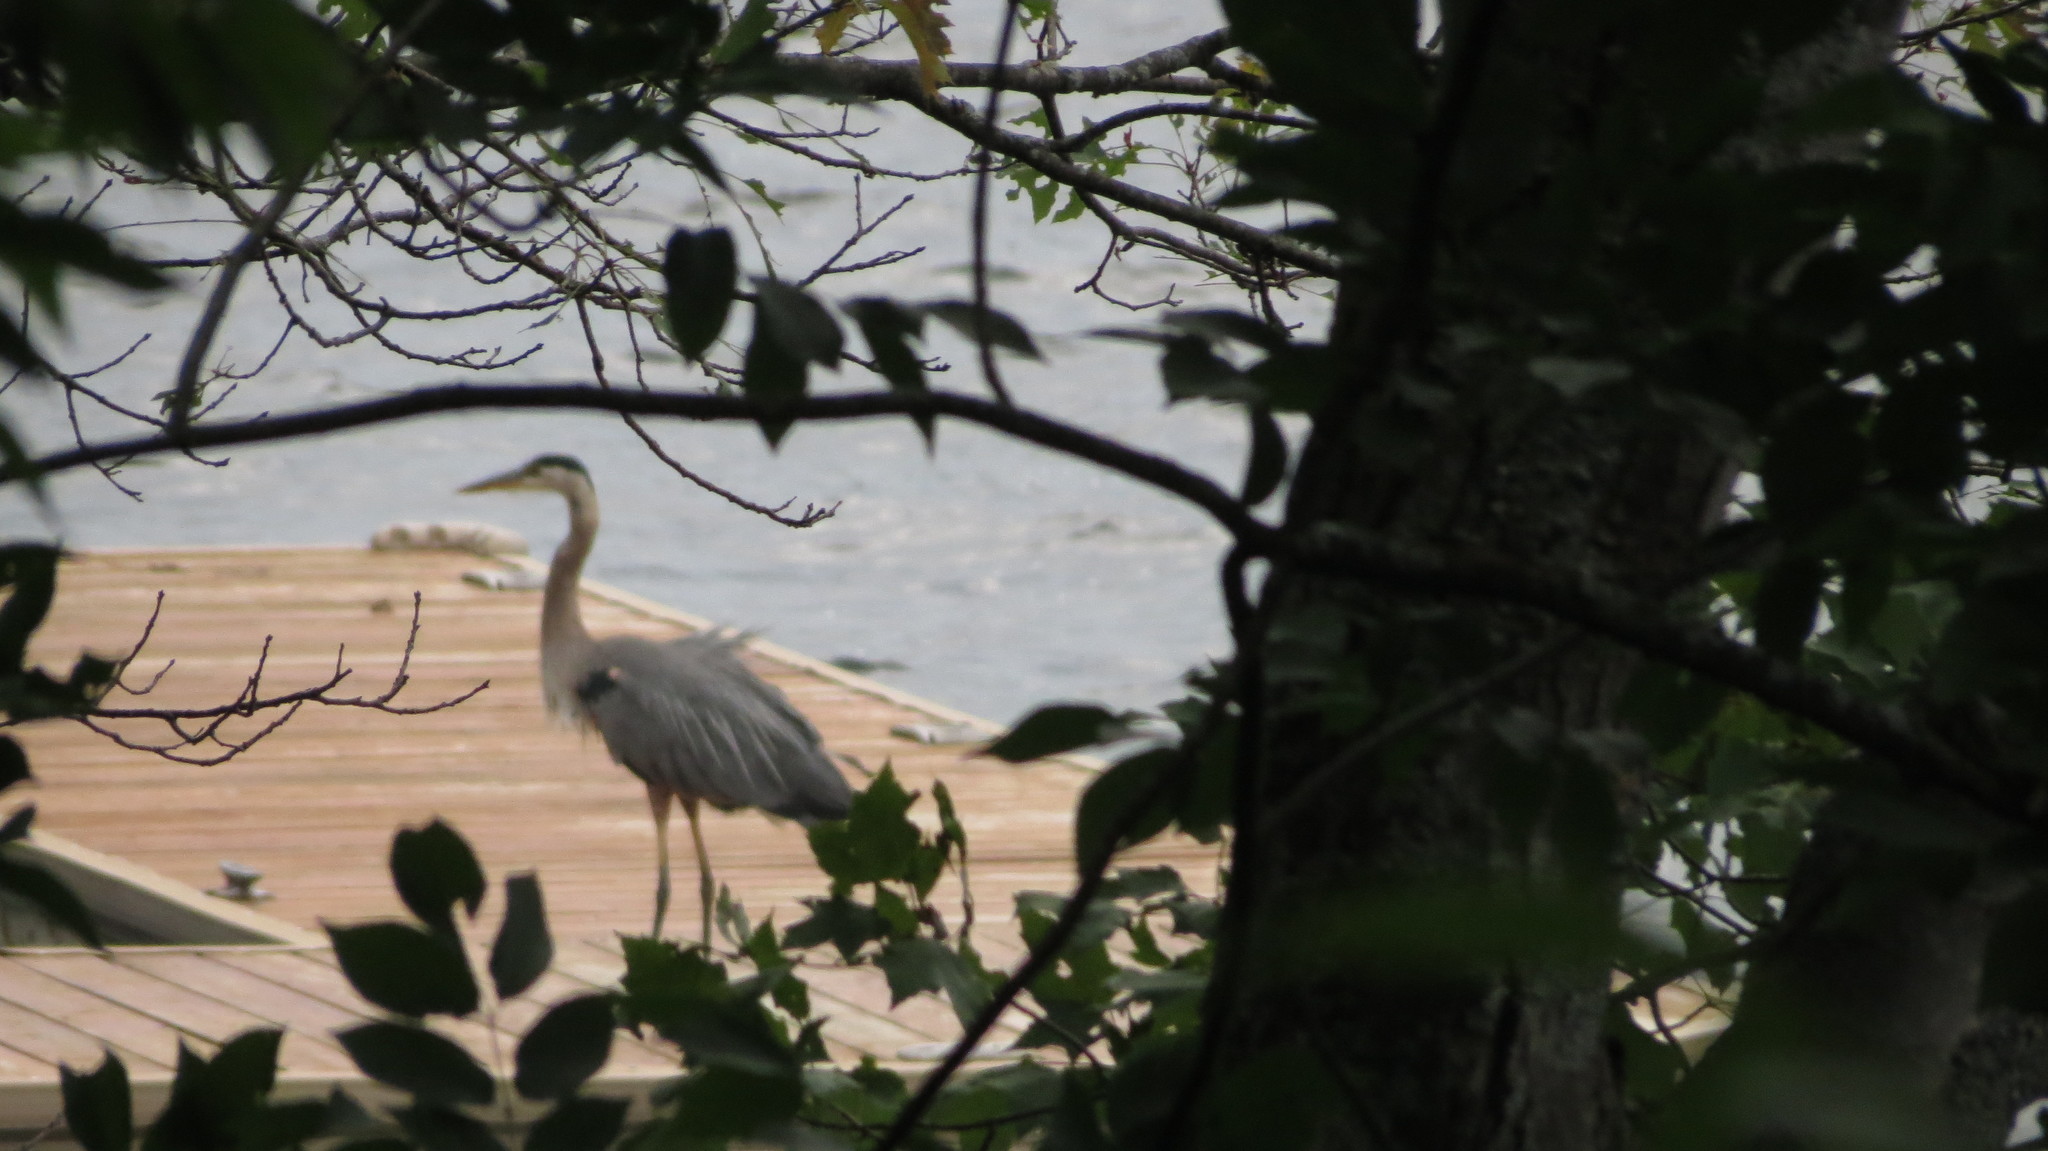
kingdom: Animalia
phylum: Chordata
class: Aves
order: Pelecaniformes
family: Ardeidae
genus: Ardea
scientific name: Ardea herodias
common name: Great blue heron
